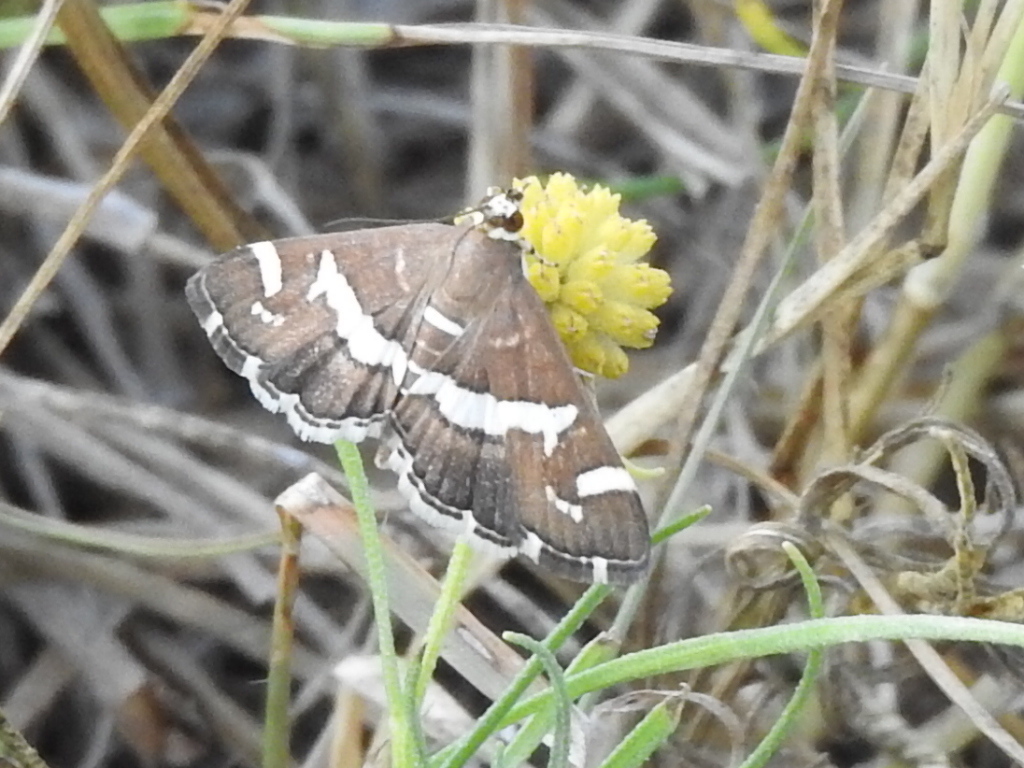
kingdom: Animalia
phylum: Arthropoda
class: Insecta
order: Lepidoptera
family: Crambidae
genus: Spoladea
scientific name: Spoladea recurvalis
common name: Beet webworm moth
